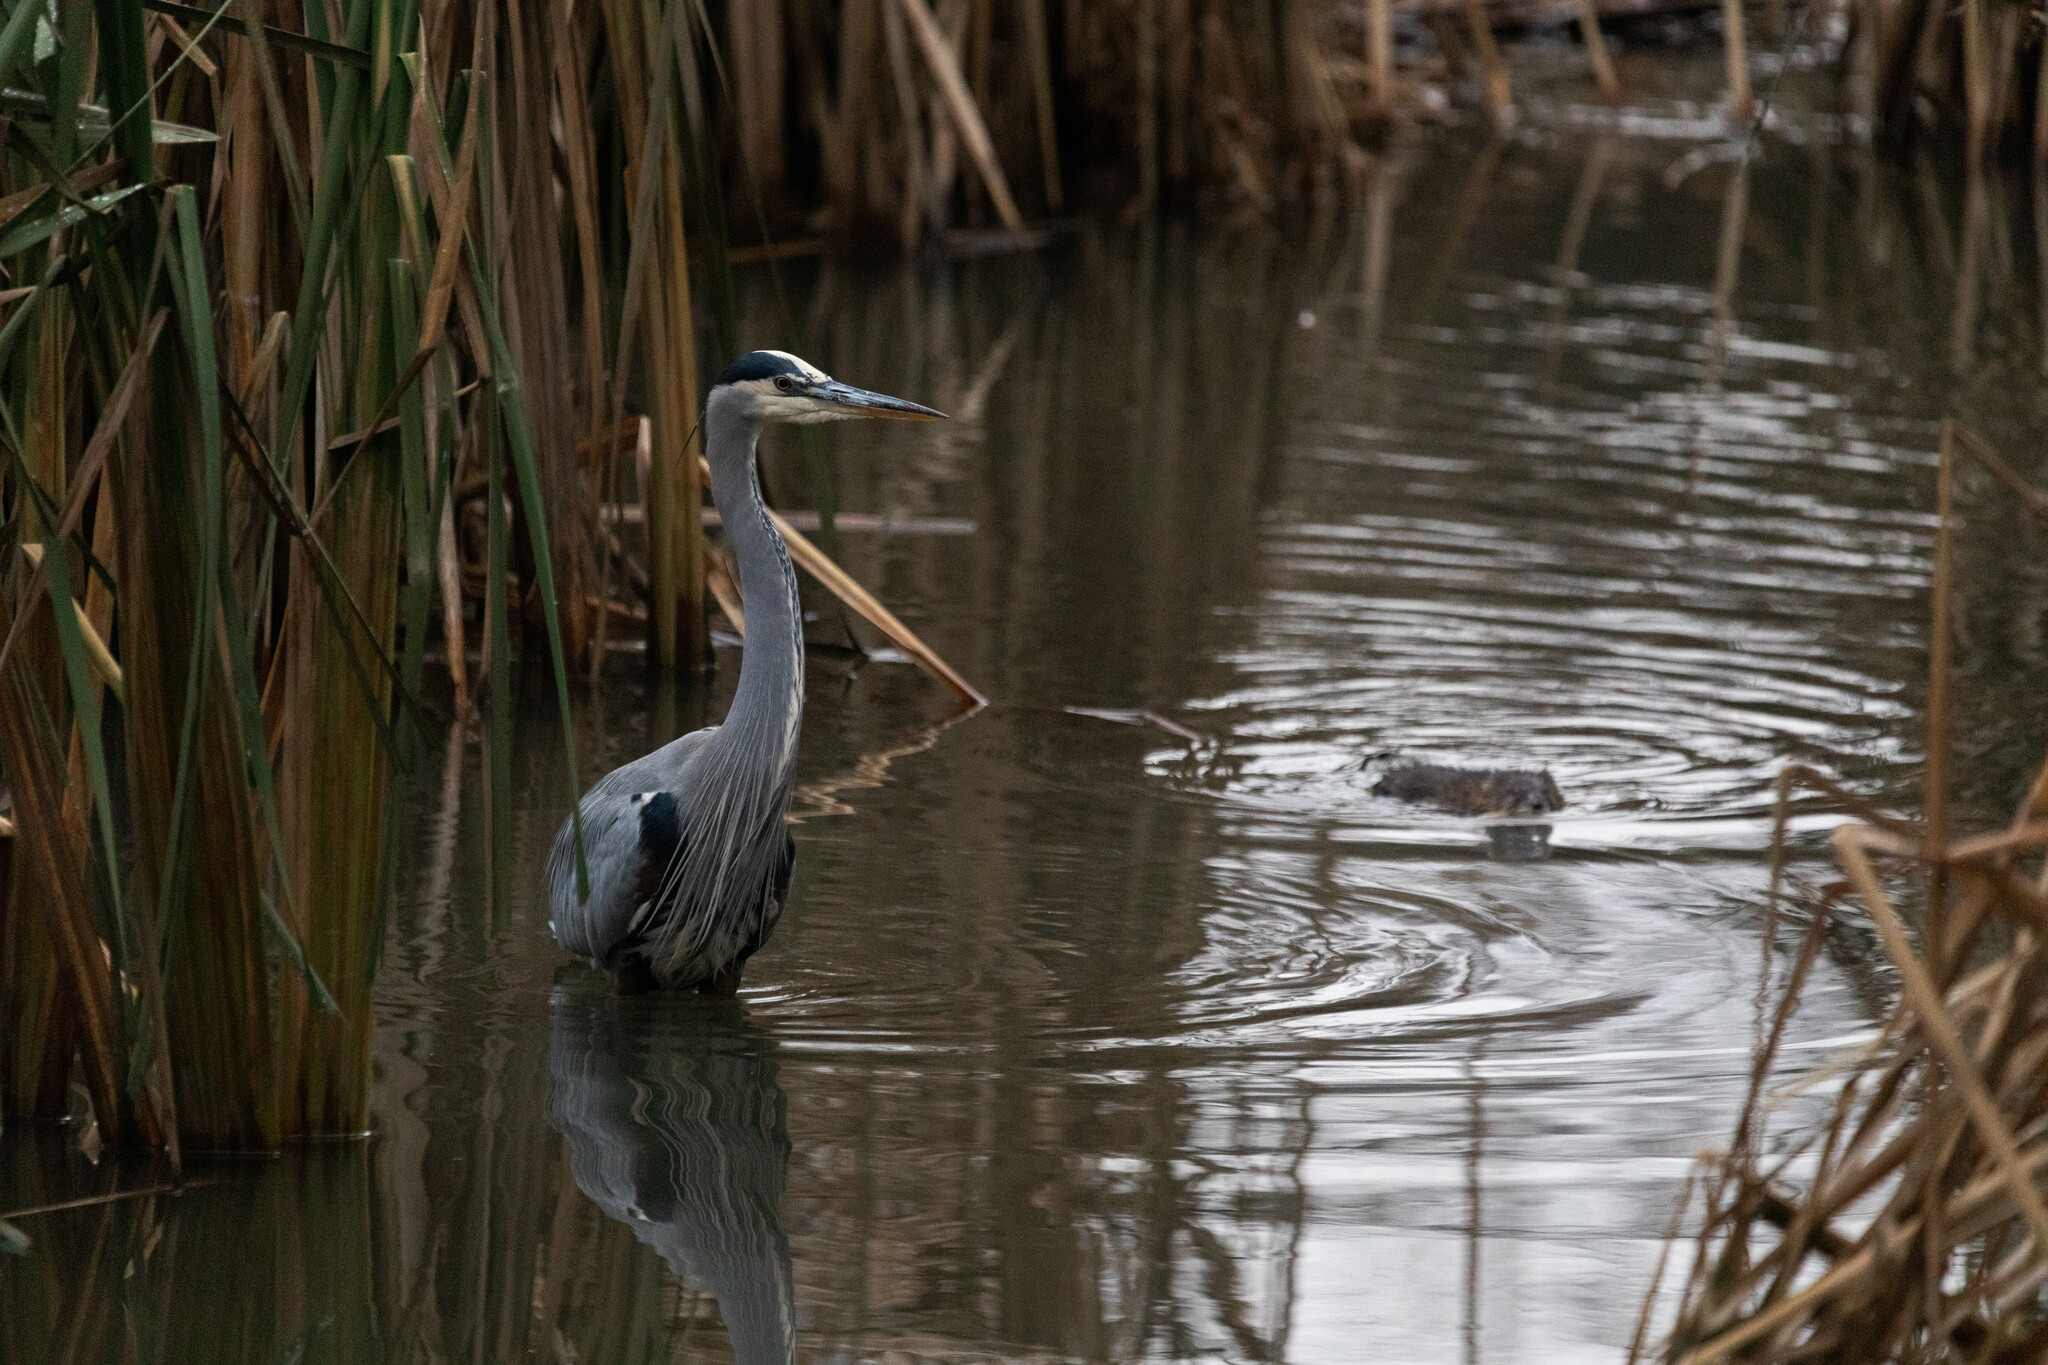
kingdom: Animalia
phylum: Chordata
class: Aves
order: Pelecaniformes
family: Ardeidae
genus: Ardea
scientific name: Ardea herodias
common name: Great blue heron
